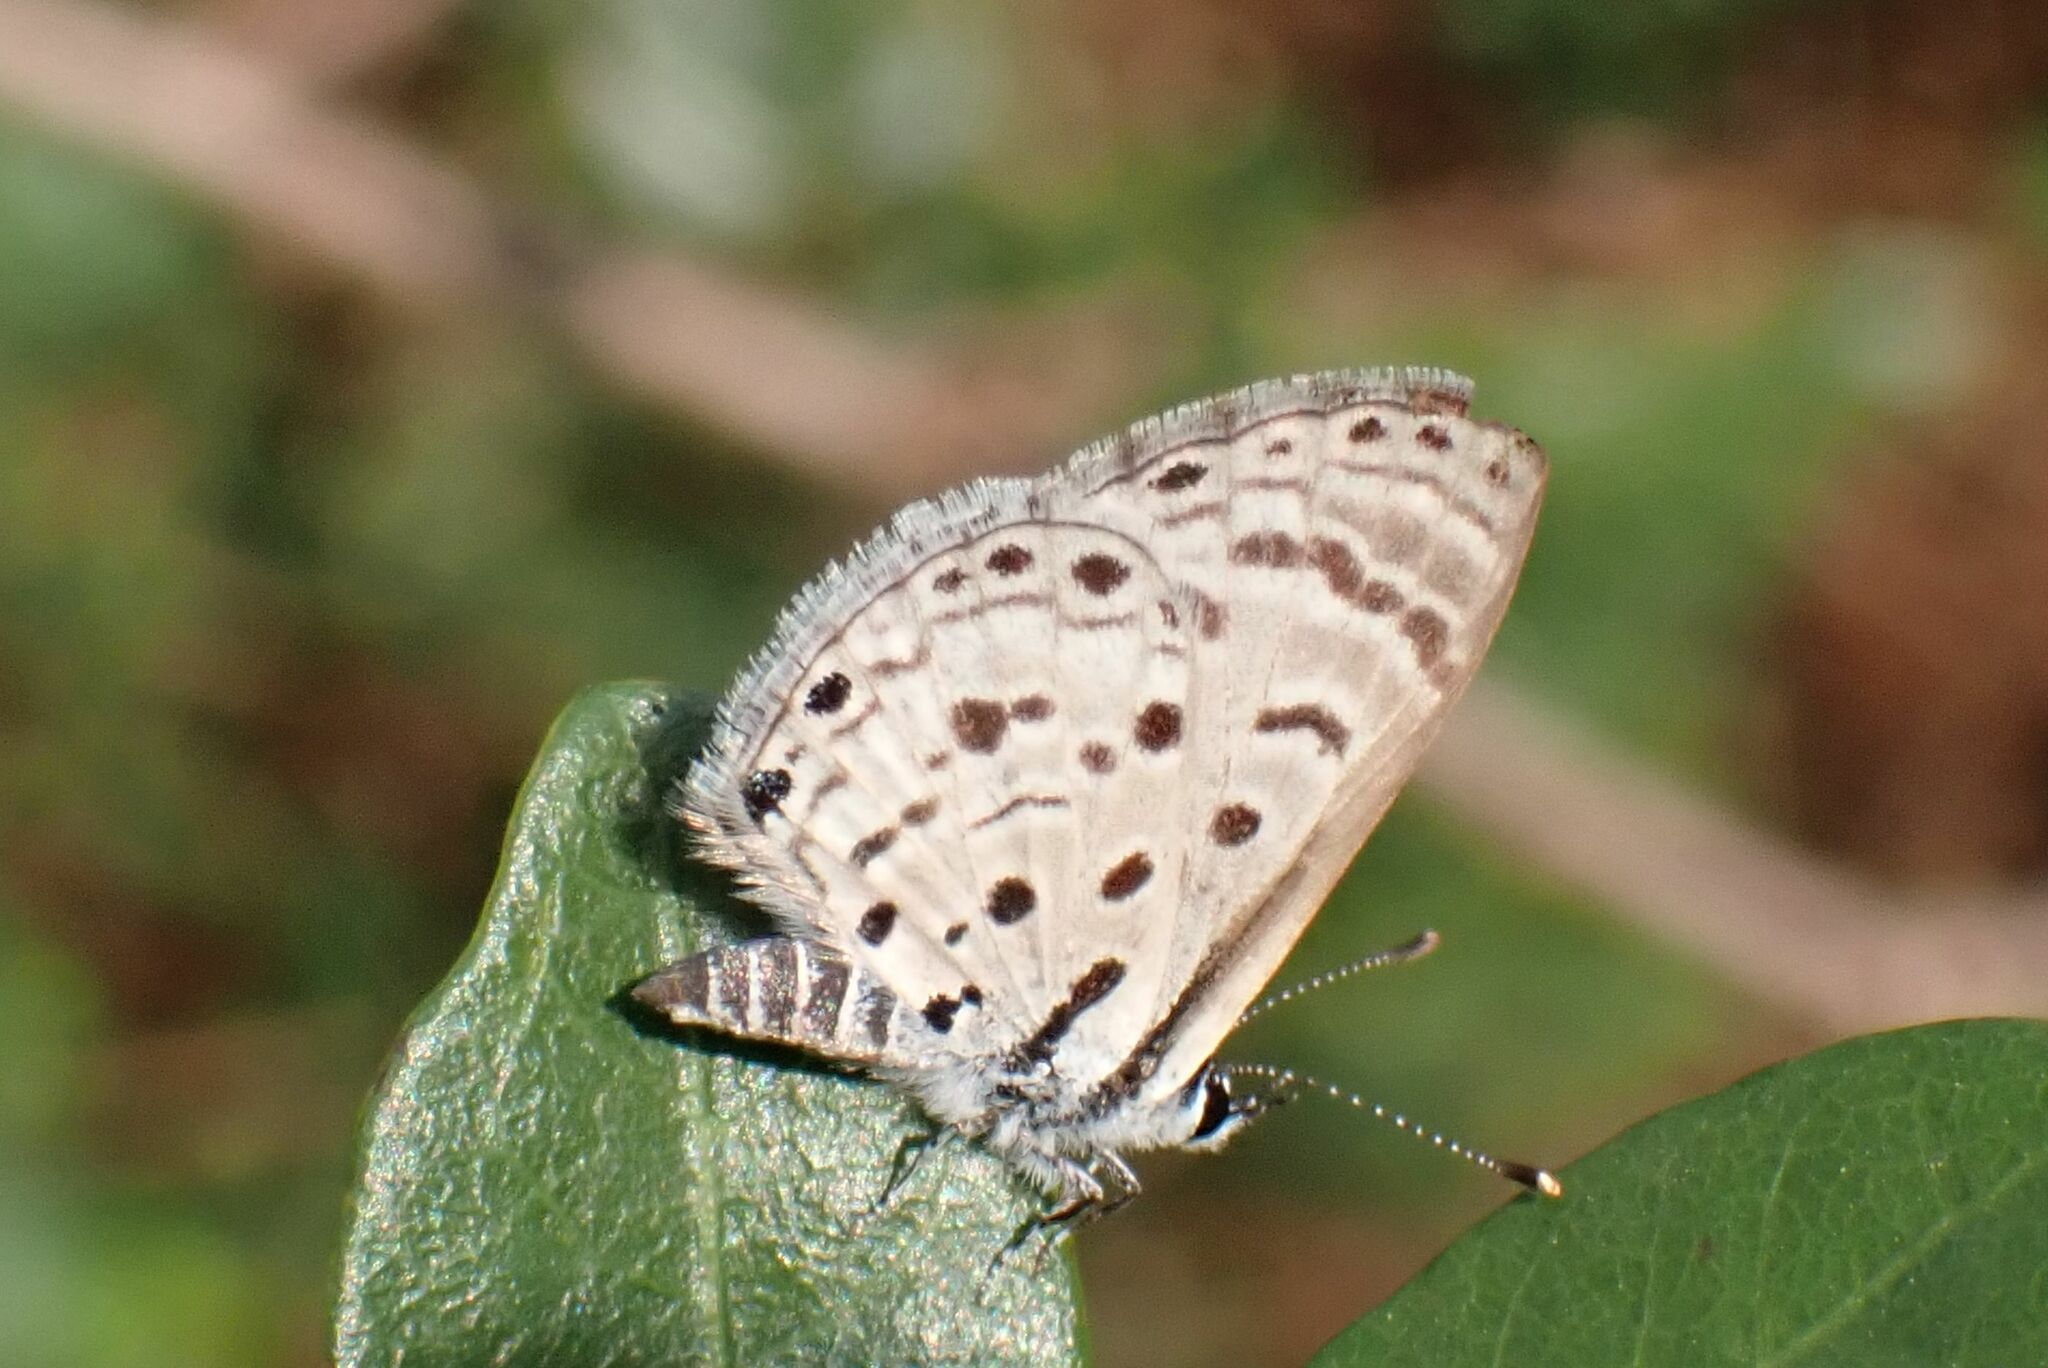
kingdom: Animalia
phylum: Arthropoda
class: Insecta
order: Lepidoptera
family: Lycaenidae
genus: Azanus
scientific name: Azanus moriqua
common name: Thorn-tree babul blue
